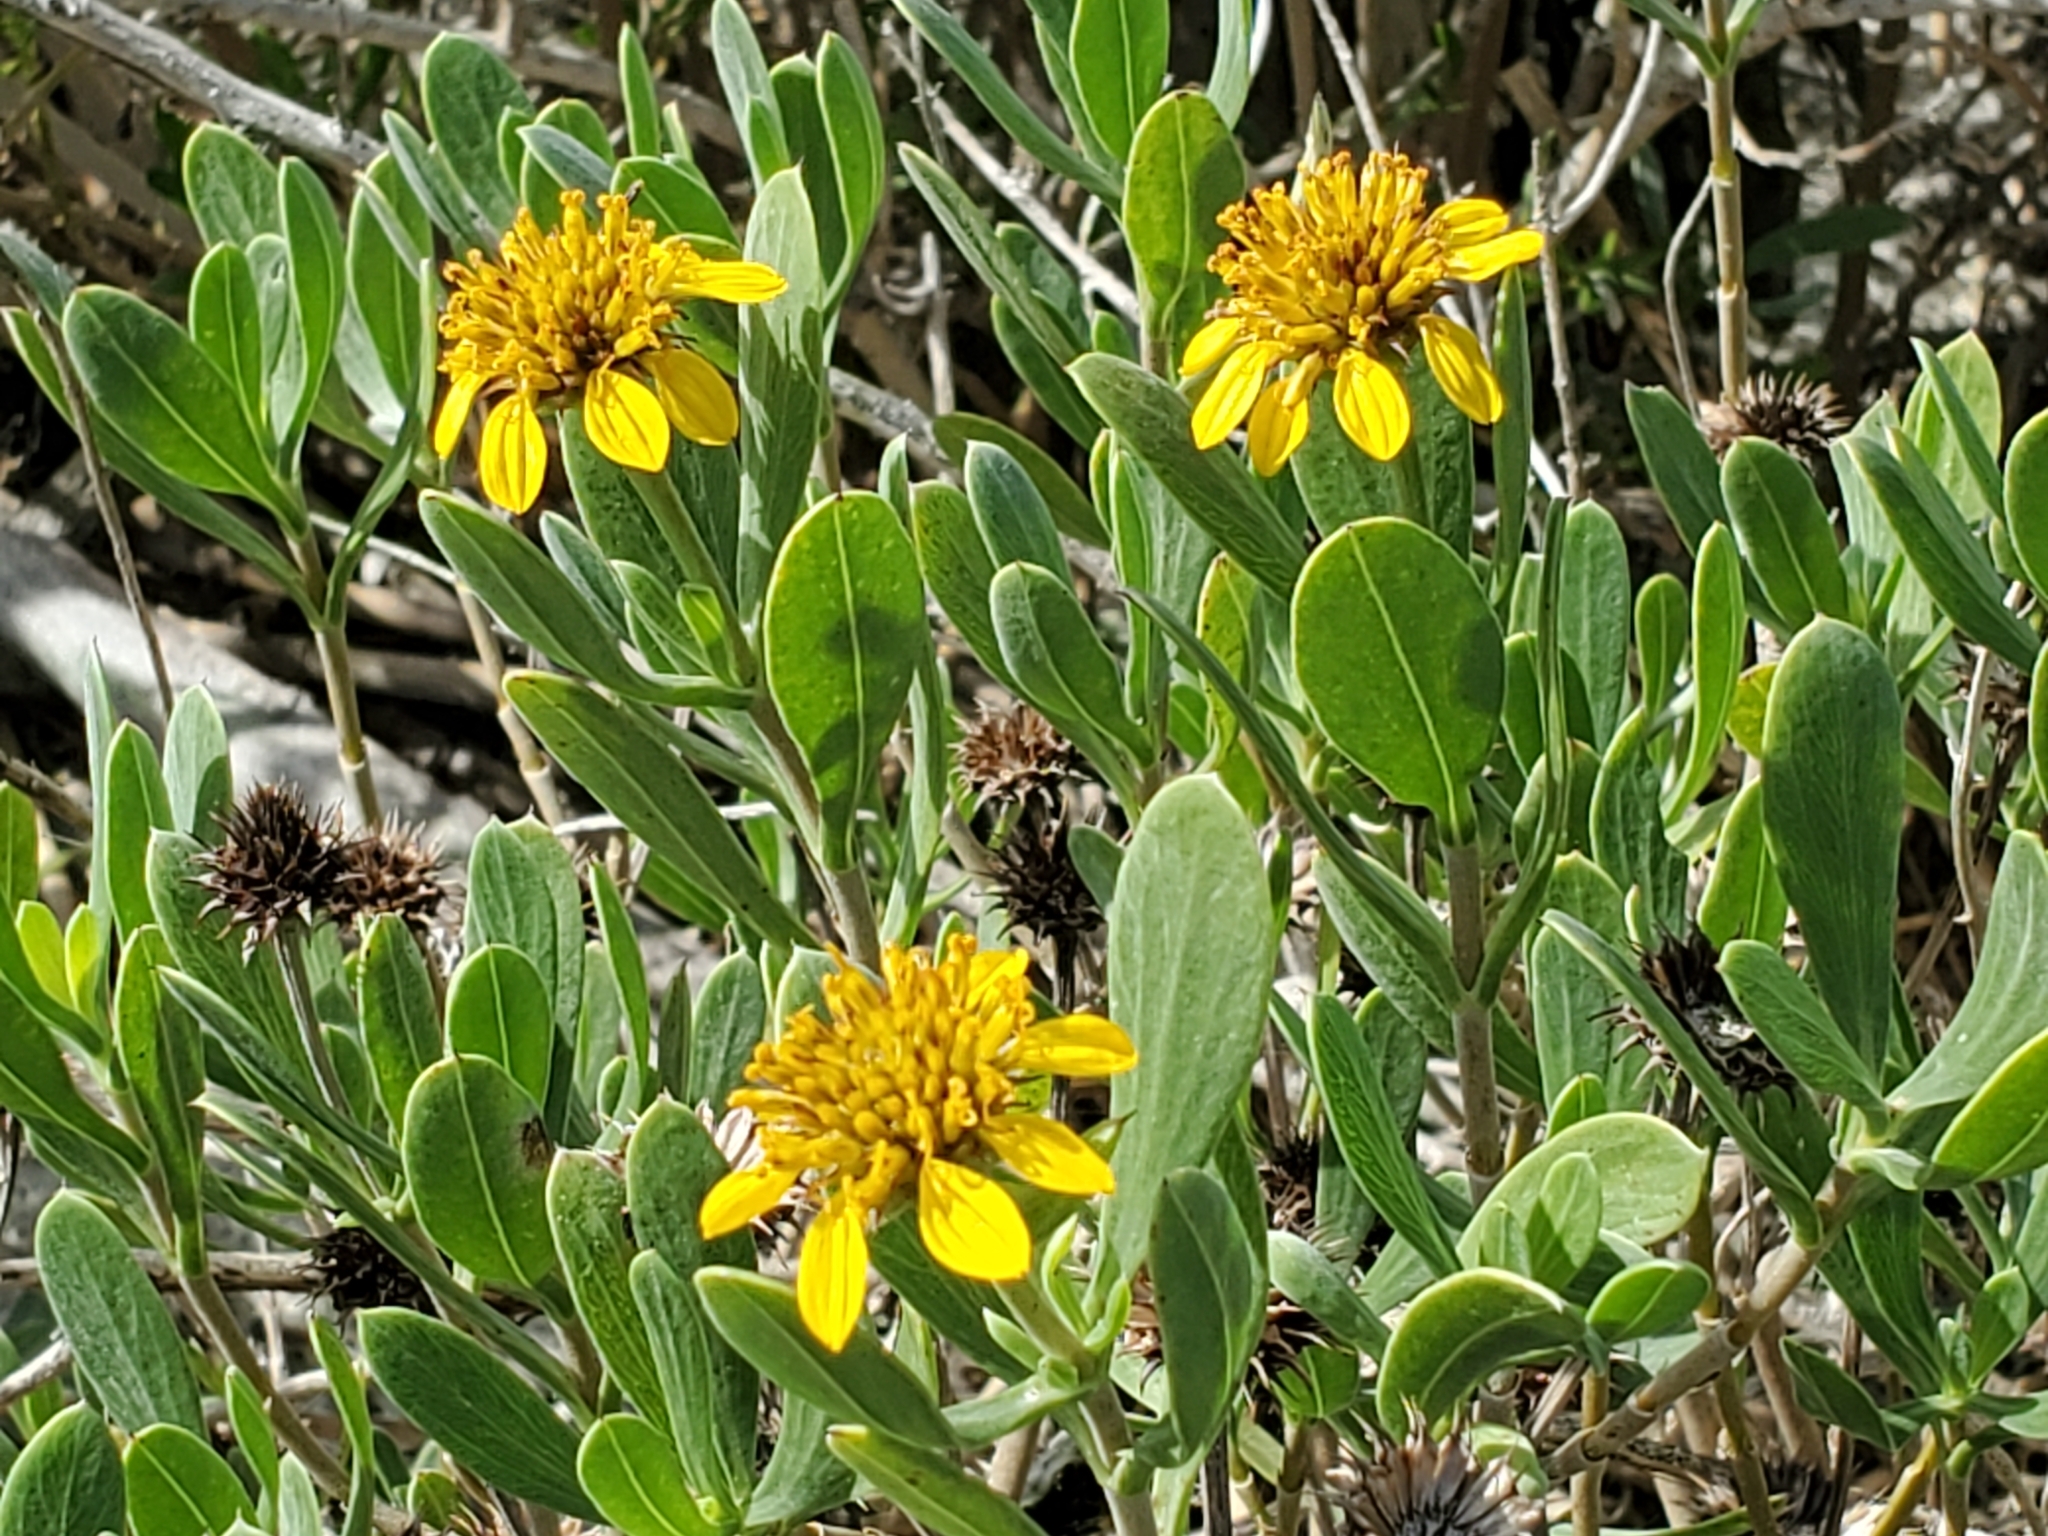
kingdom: Plantae
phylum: Tracheophyta
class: Magnoliopsida
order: Asterales
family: Asteraceae
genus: Borrichia
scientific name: Borrichia frutescens
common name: Sea oxeye
